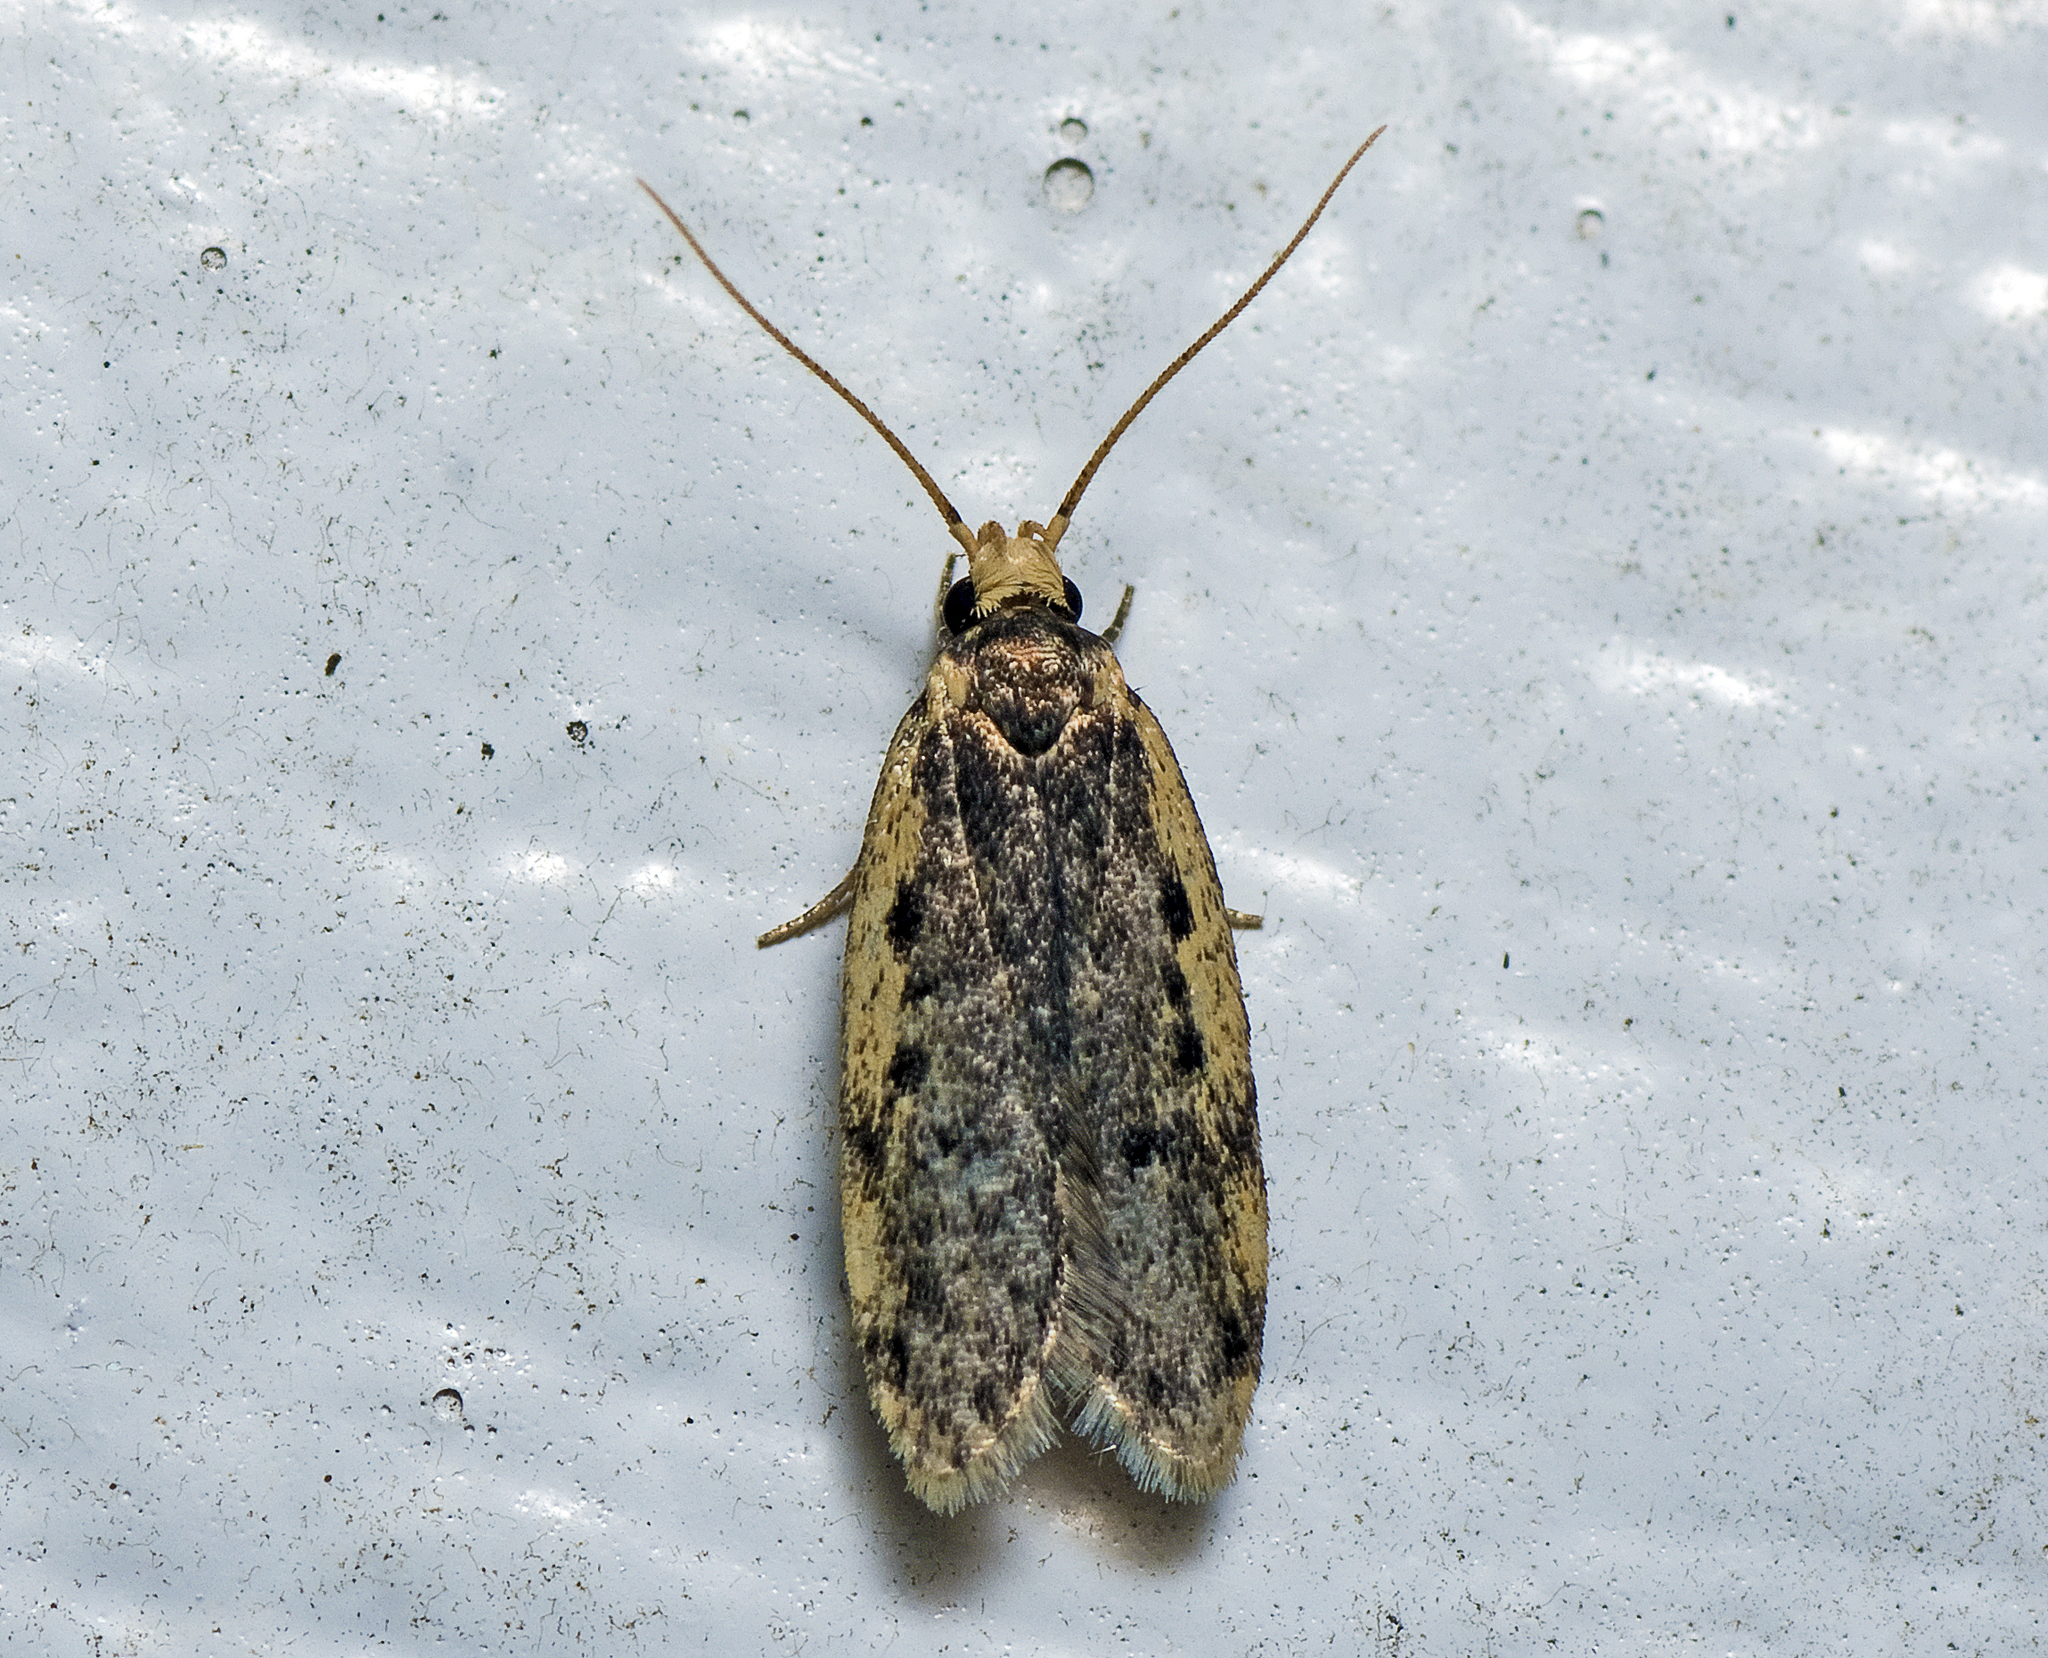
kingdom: Animalia
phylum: Arthropoda
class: Insecta
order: Lepidoptera
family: Oecophoridae
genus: Hoplostega
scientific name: Hoplostega ochroma
